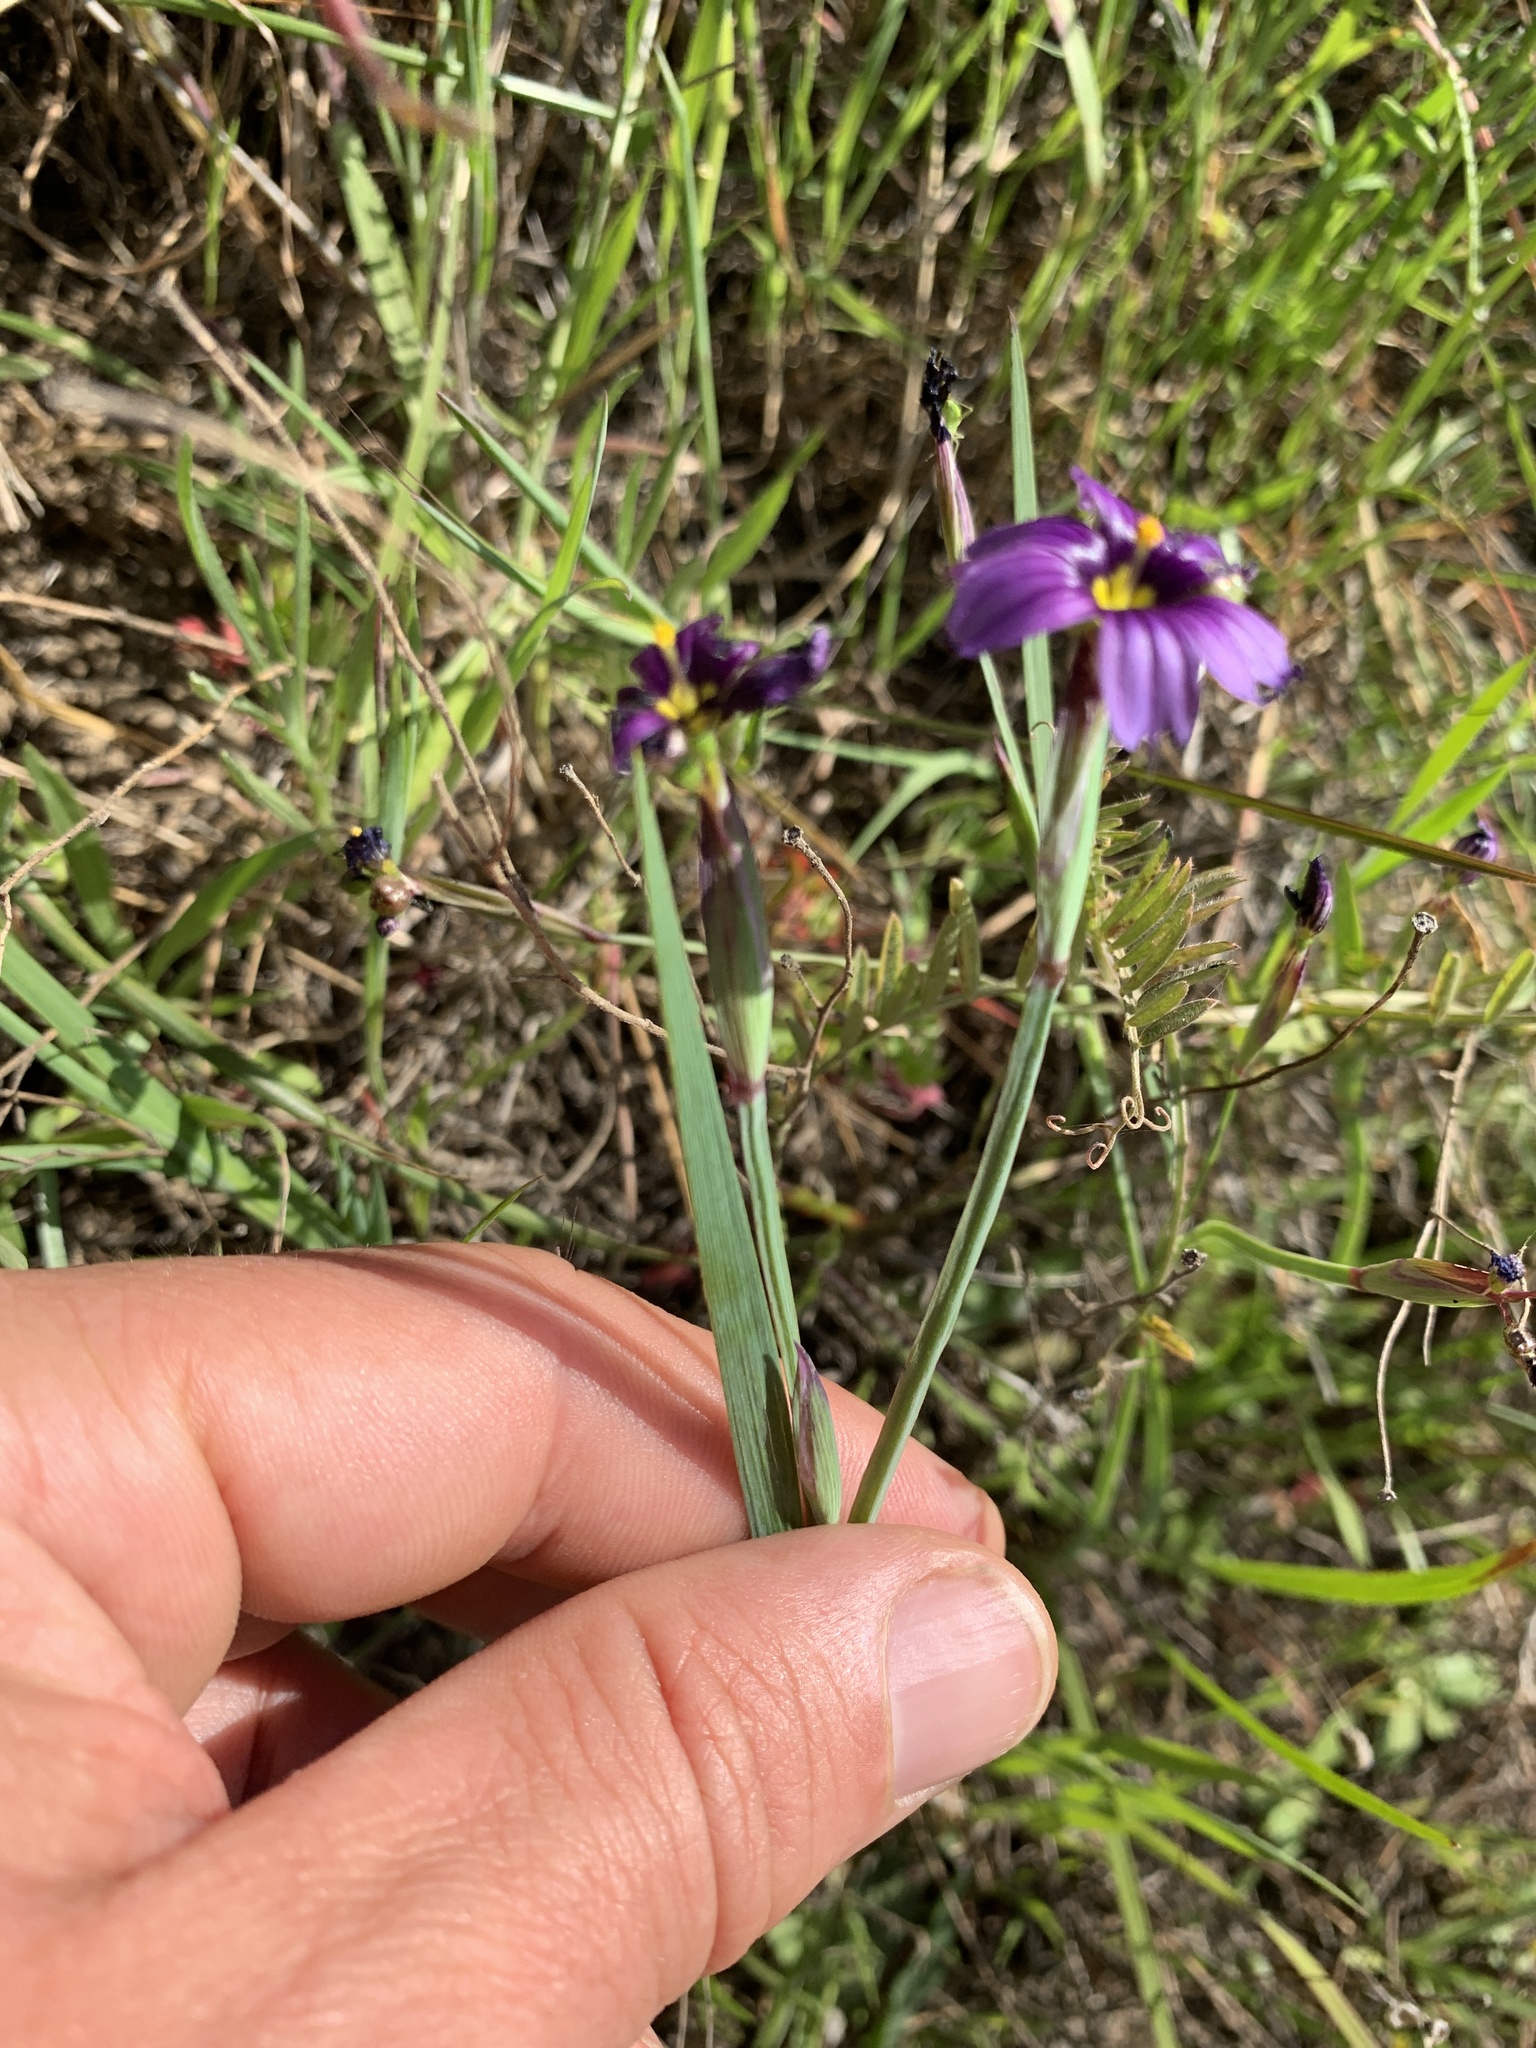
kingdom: Plantae
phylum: Tracheophyta
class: Liliopsida
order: Asparagales
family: Iridaceae
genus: Sisyrinchium
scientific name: Sisyrinchium bellum
